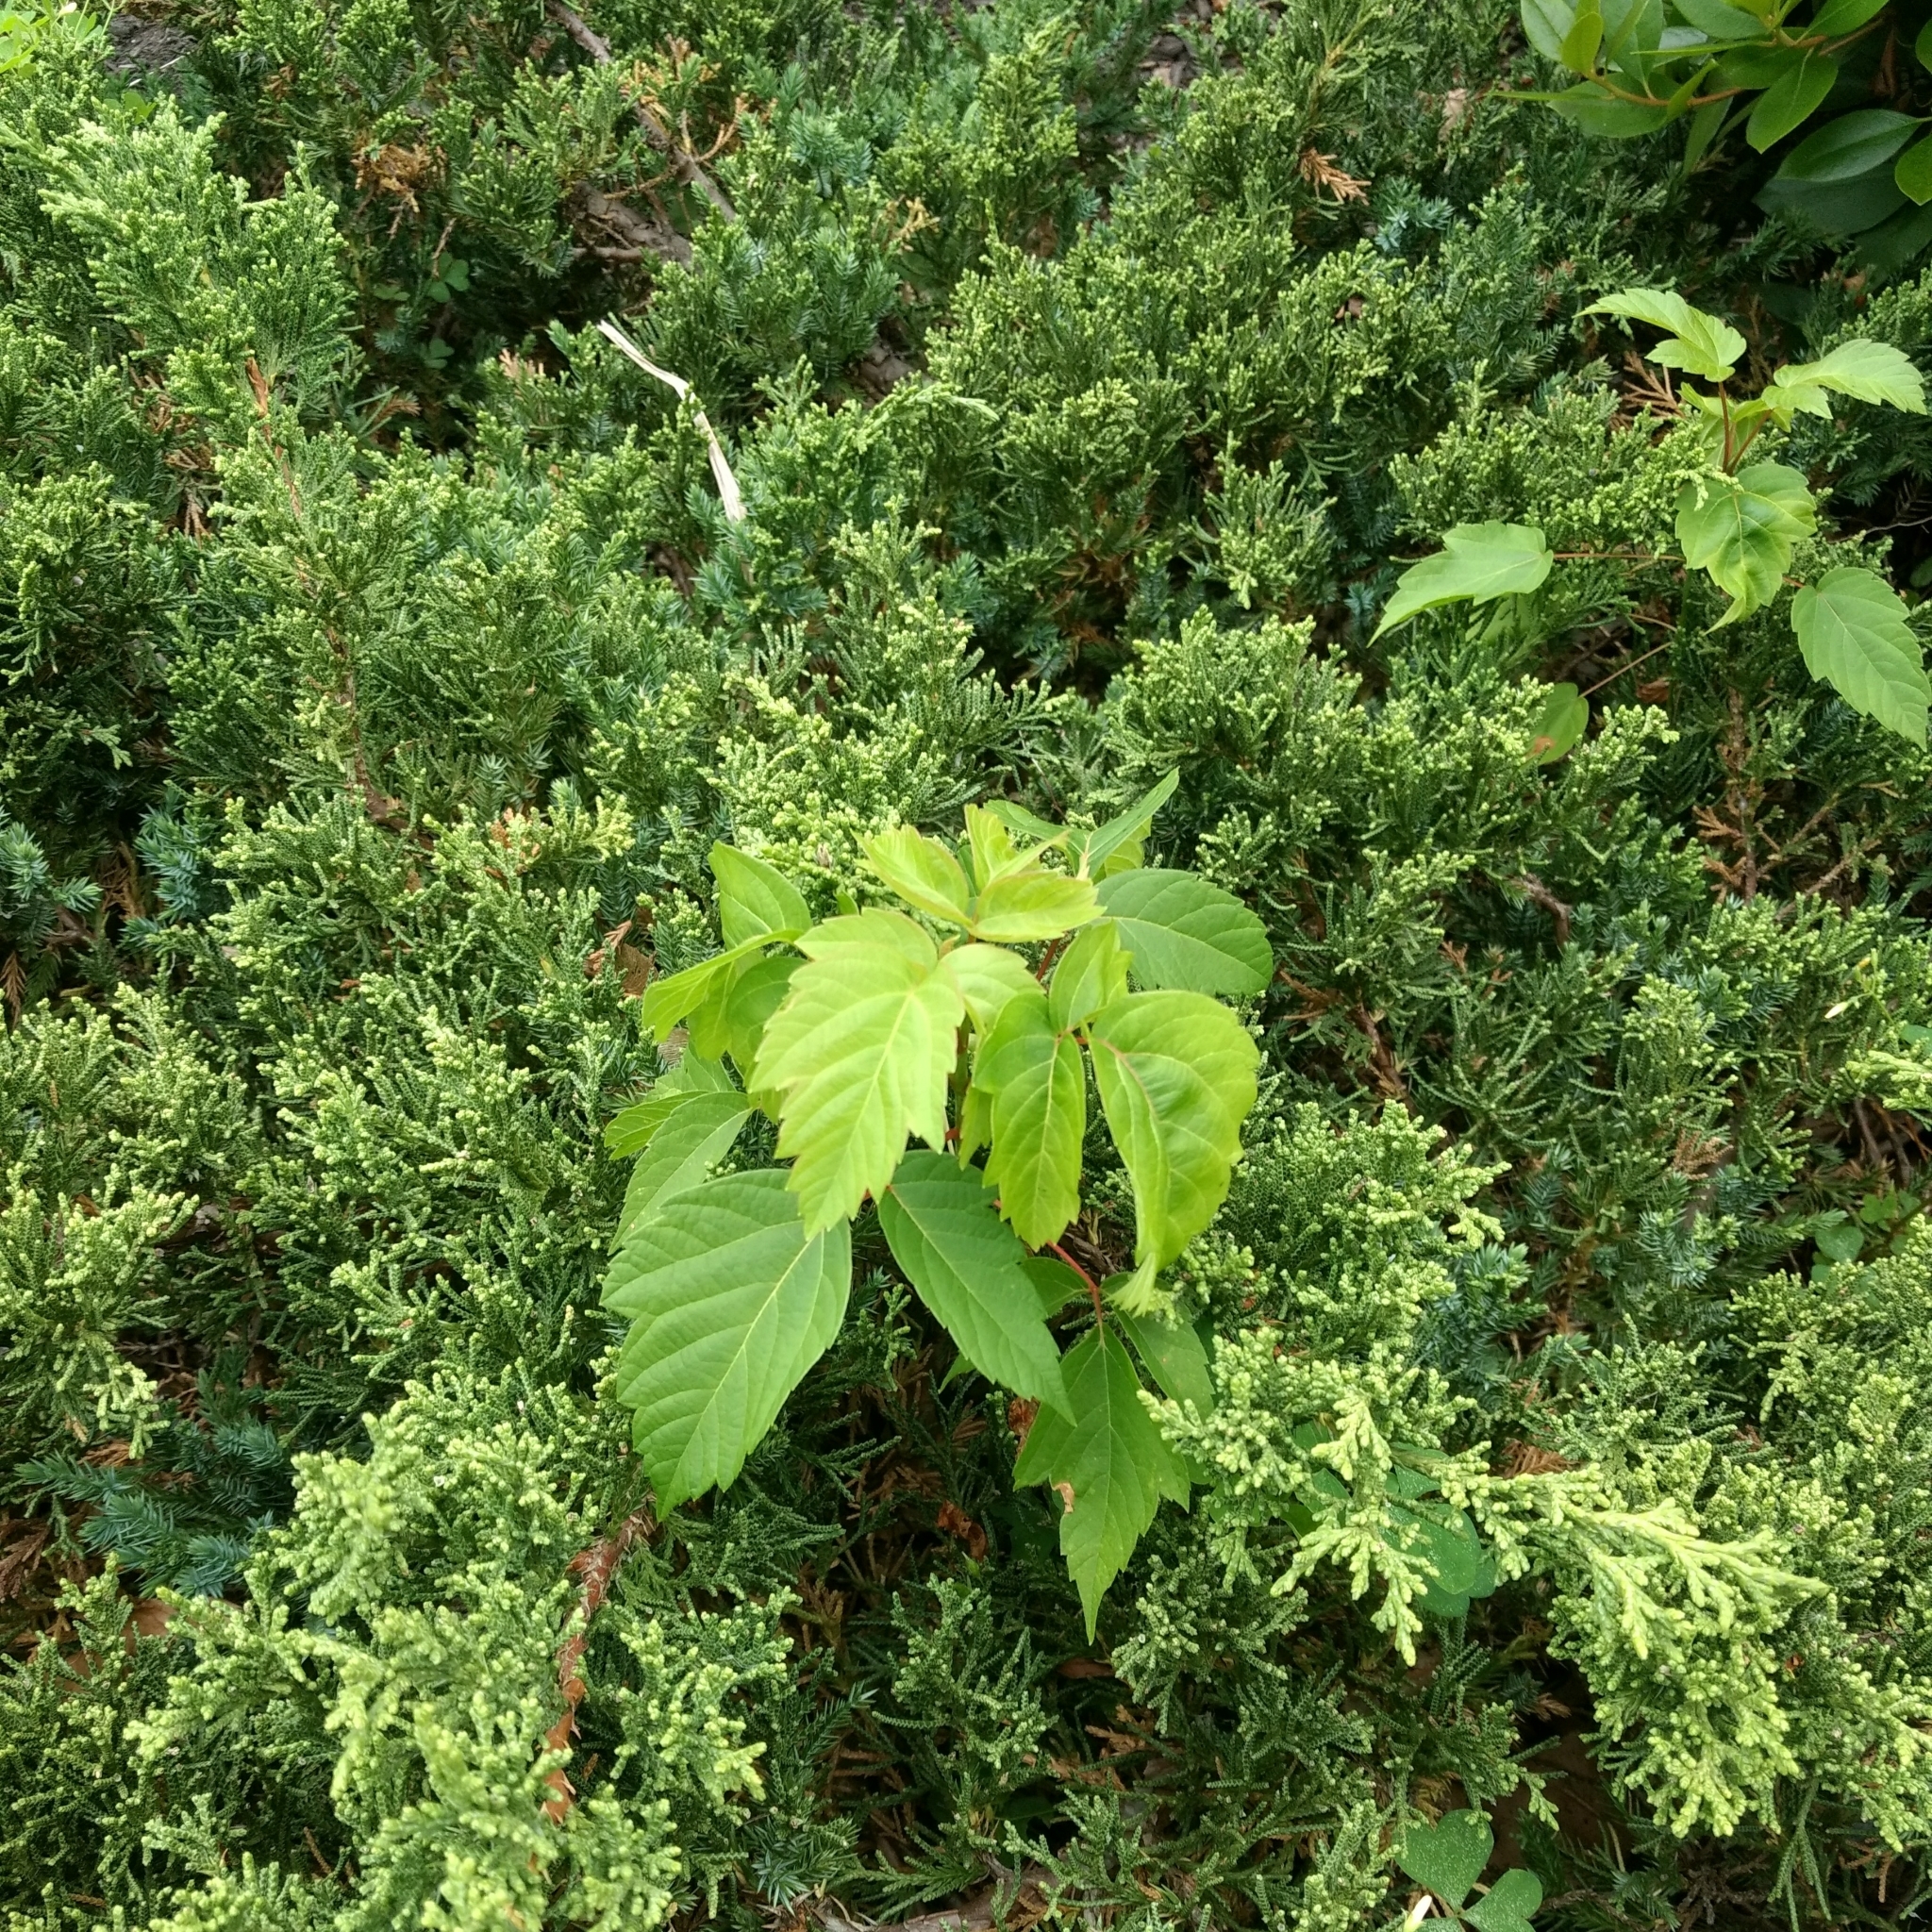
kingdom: Plantae
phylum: Tracheophyta
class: Magnoliopsida
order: Sapindales
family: Sapindaceae
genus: Acer
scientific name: Acer negundo
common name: Ashleaf maple
